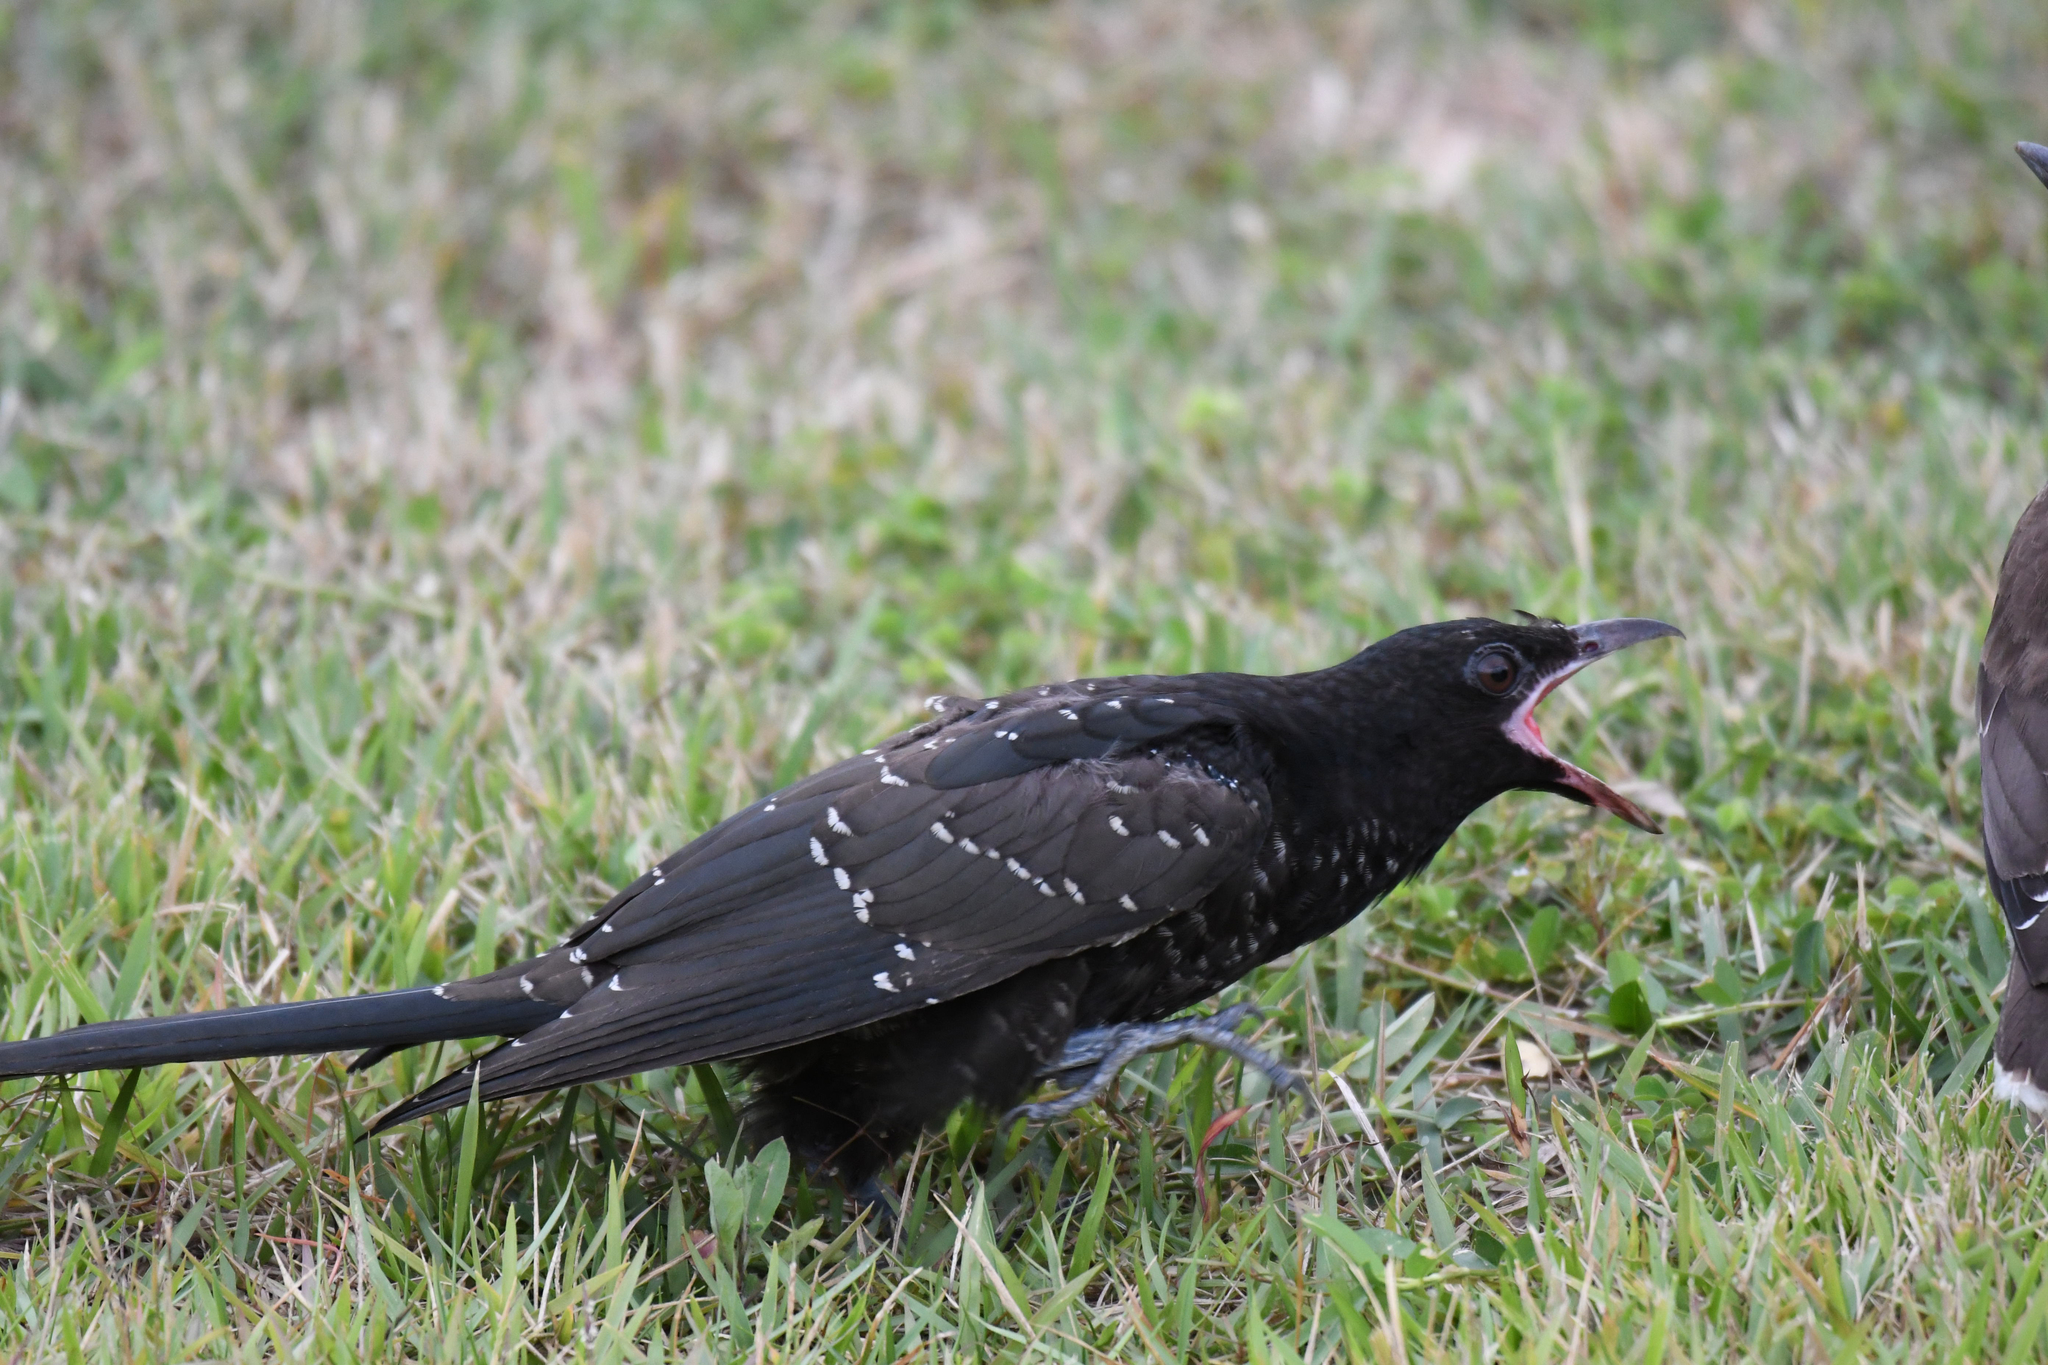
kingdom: Animalia
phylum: Chordata
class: Aves
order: Cuculiformes
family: Cuculidae
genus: Eudynamys
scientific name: Eudynamys scolopaceus
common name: Asian koel
